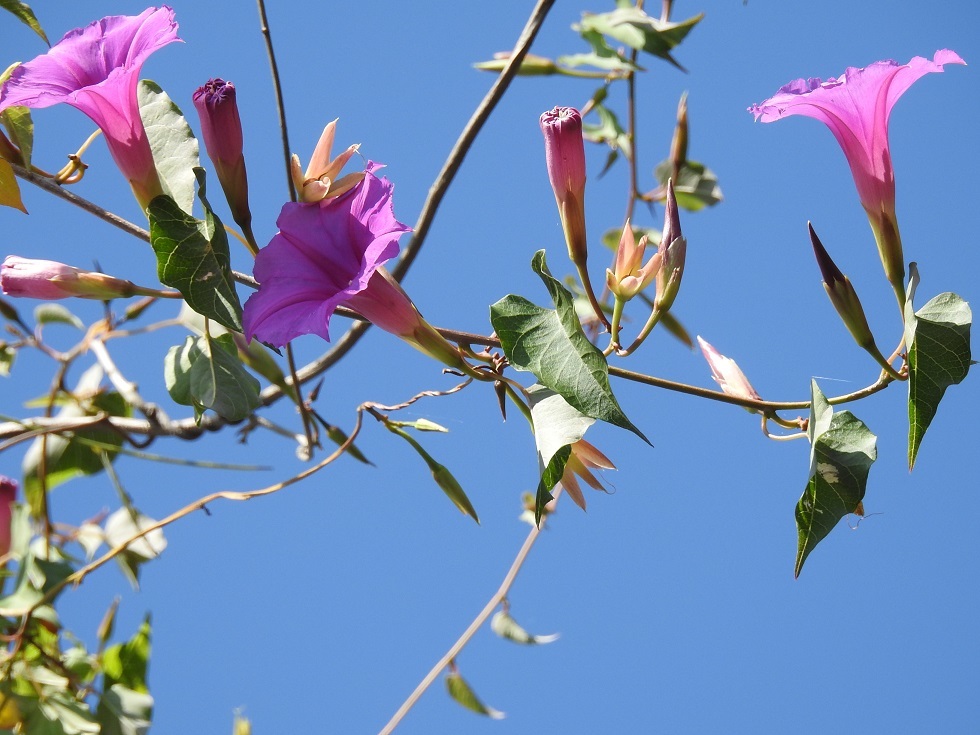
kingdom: Plantae
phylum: Tracheophyta
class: Magnoliopsida
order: Solanales
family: Convolvulaceae
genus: Ipomoea
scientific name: Ipomoea bernoulliana
